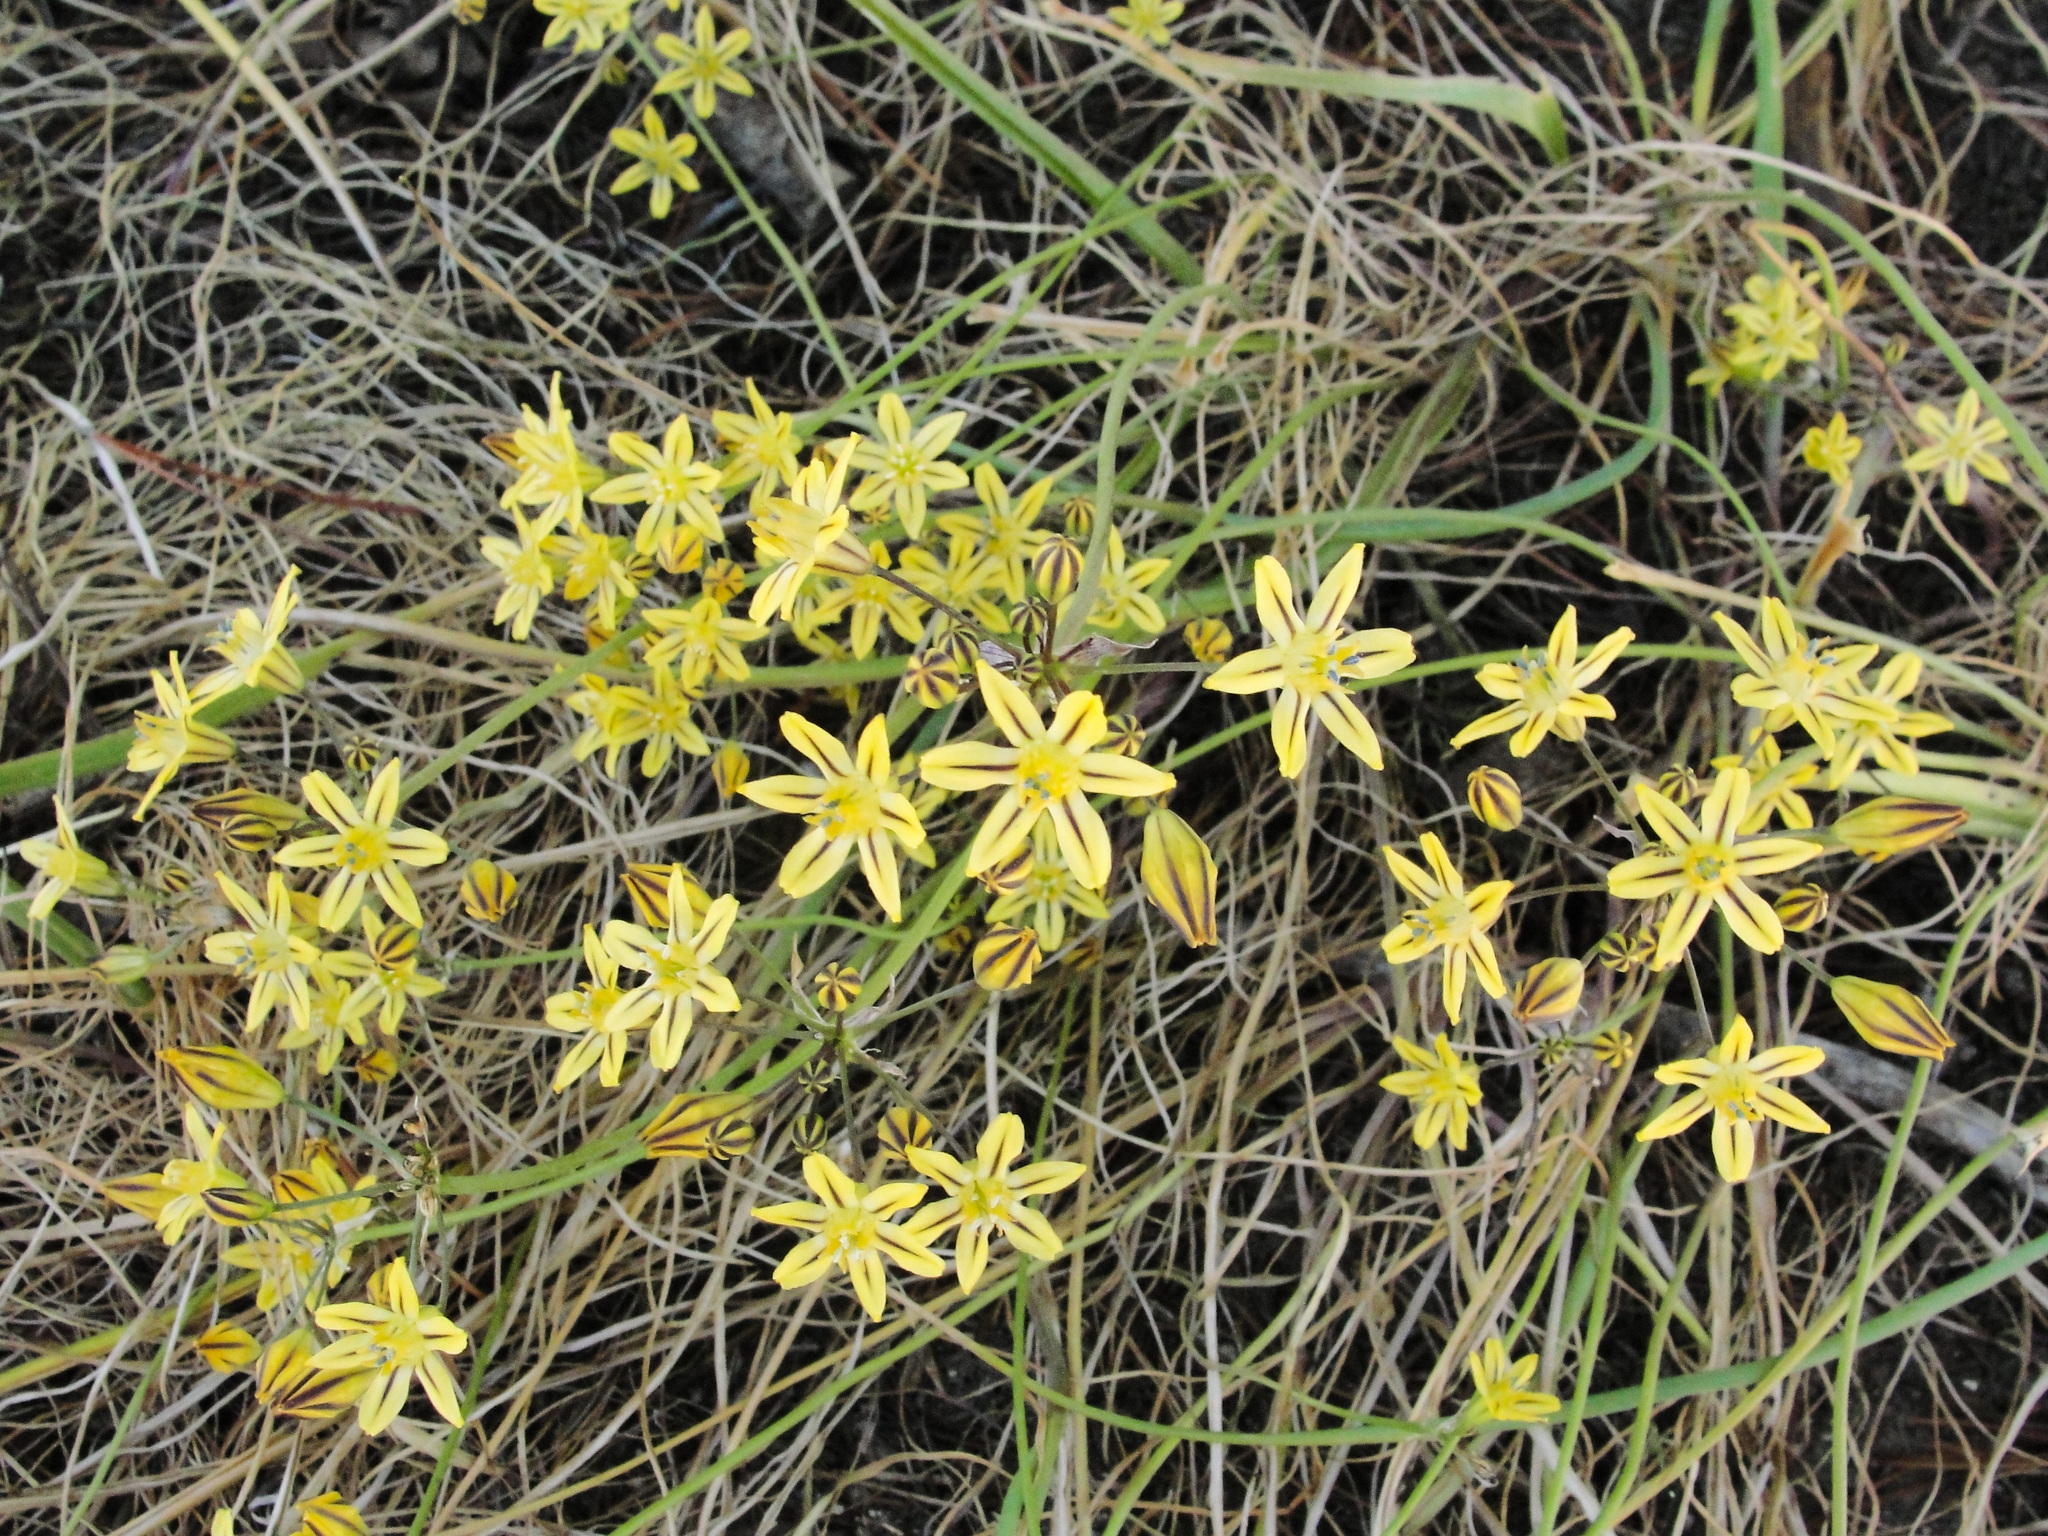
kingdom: Plantae
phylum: Tracheophyta
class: Liliopsida
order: Asparagales
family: Asparagaceae
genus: Triteleia
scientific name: Triteleia ixioides
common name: Yellow-brodiaea
